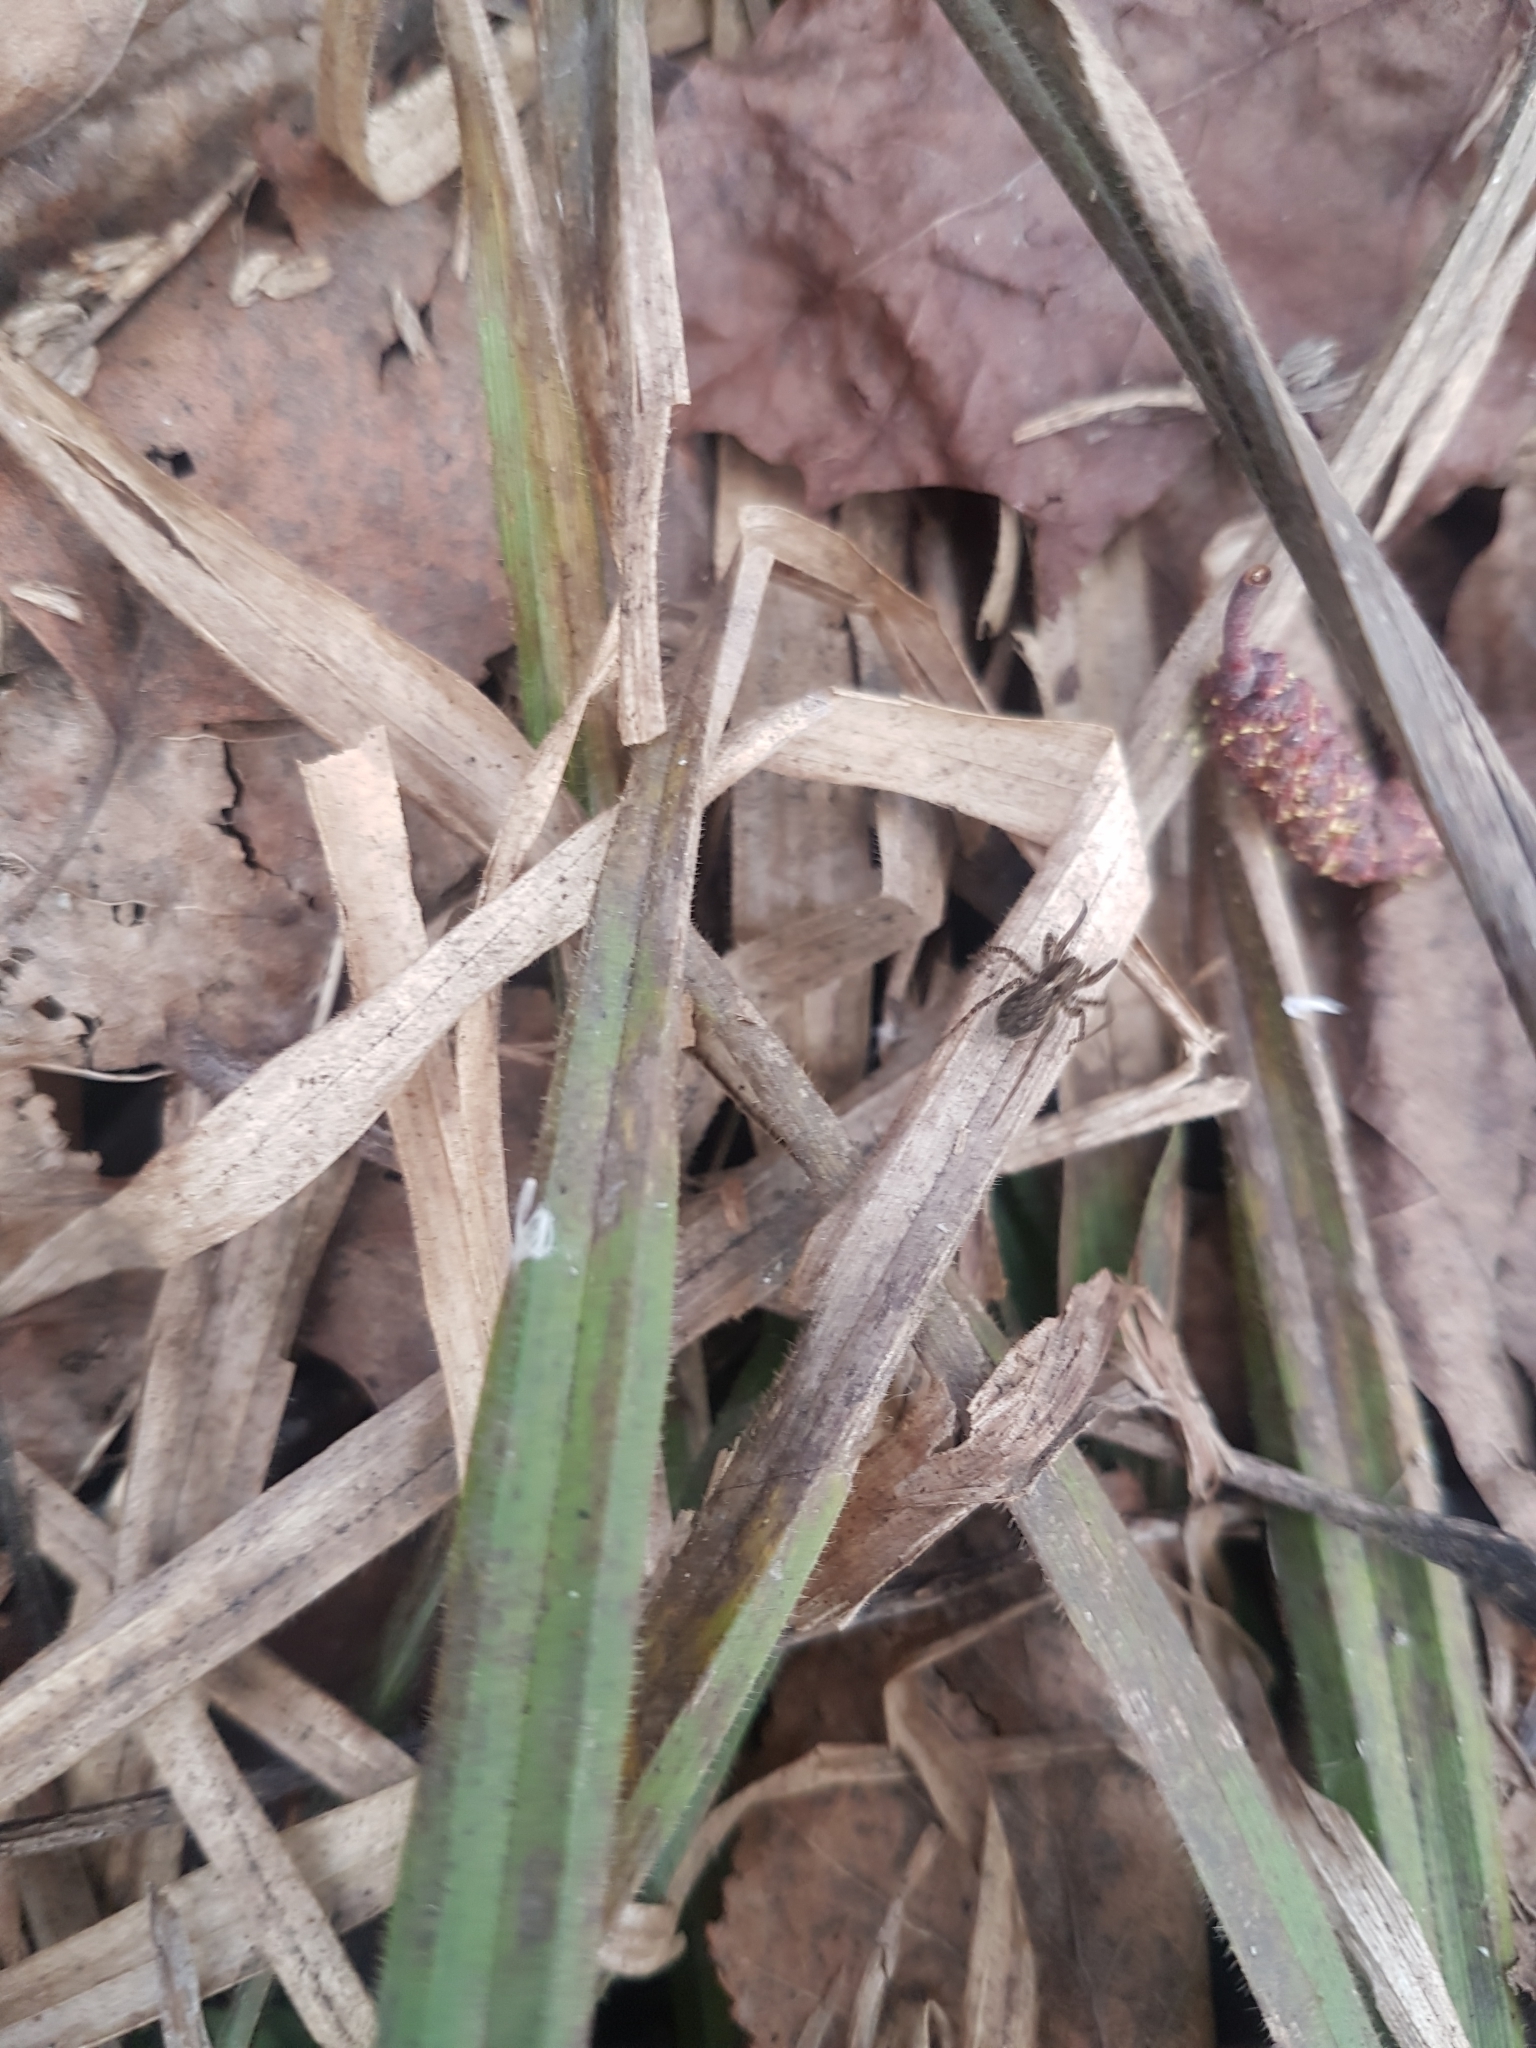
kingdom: Plantae
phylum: Tracheophyta
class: Liliopsida
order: Poales
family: Cyperaceae
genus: Carex
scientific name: Carex pilosa
